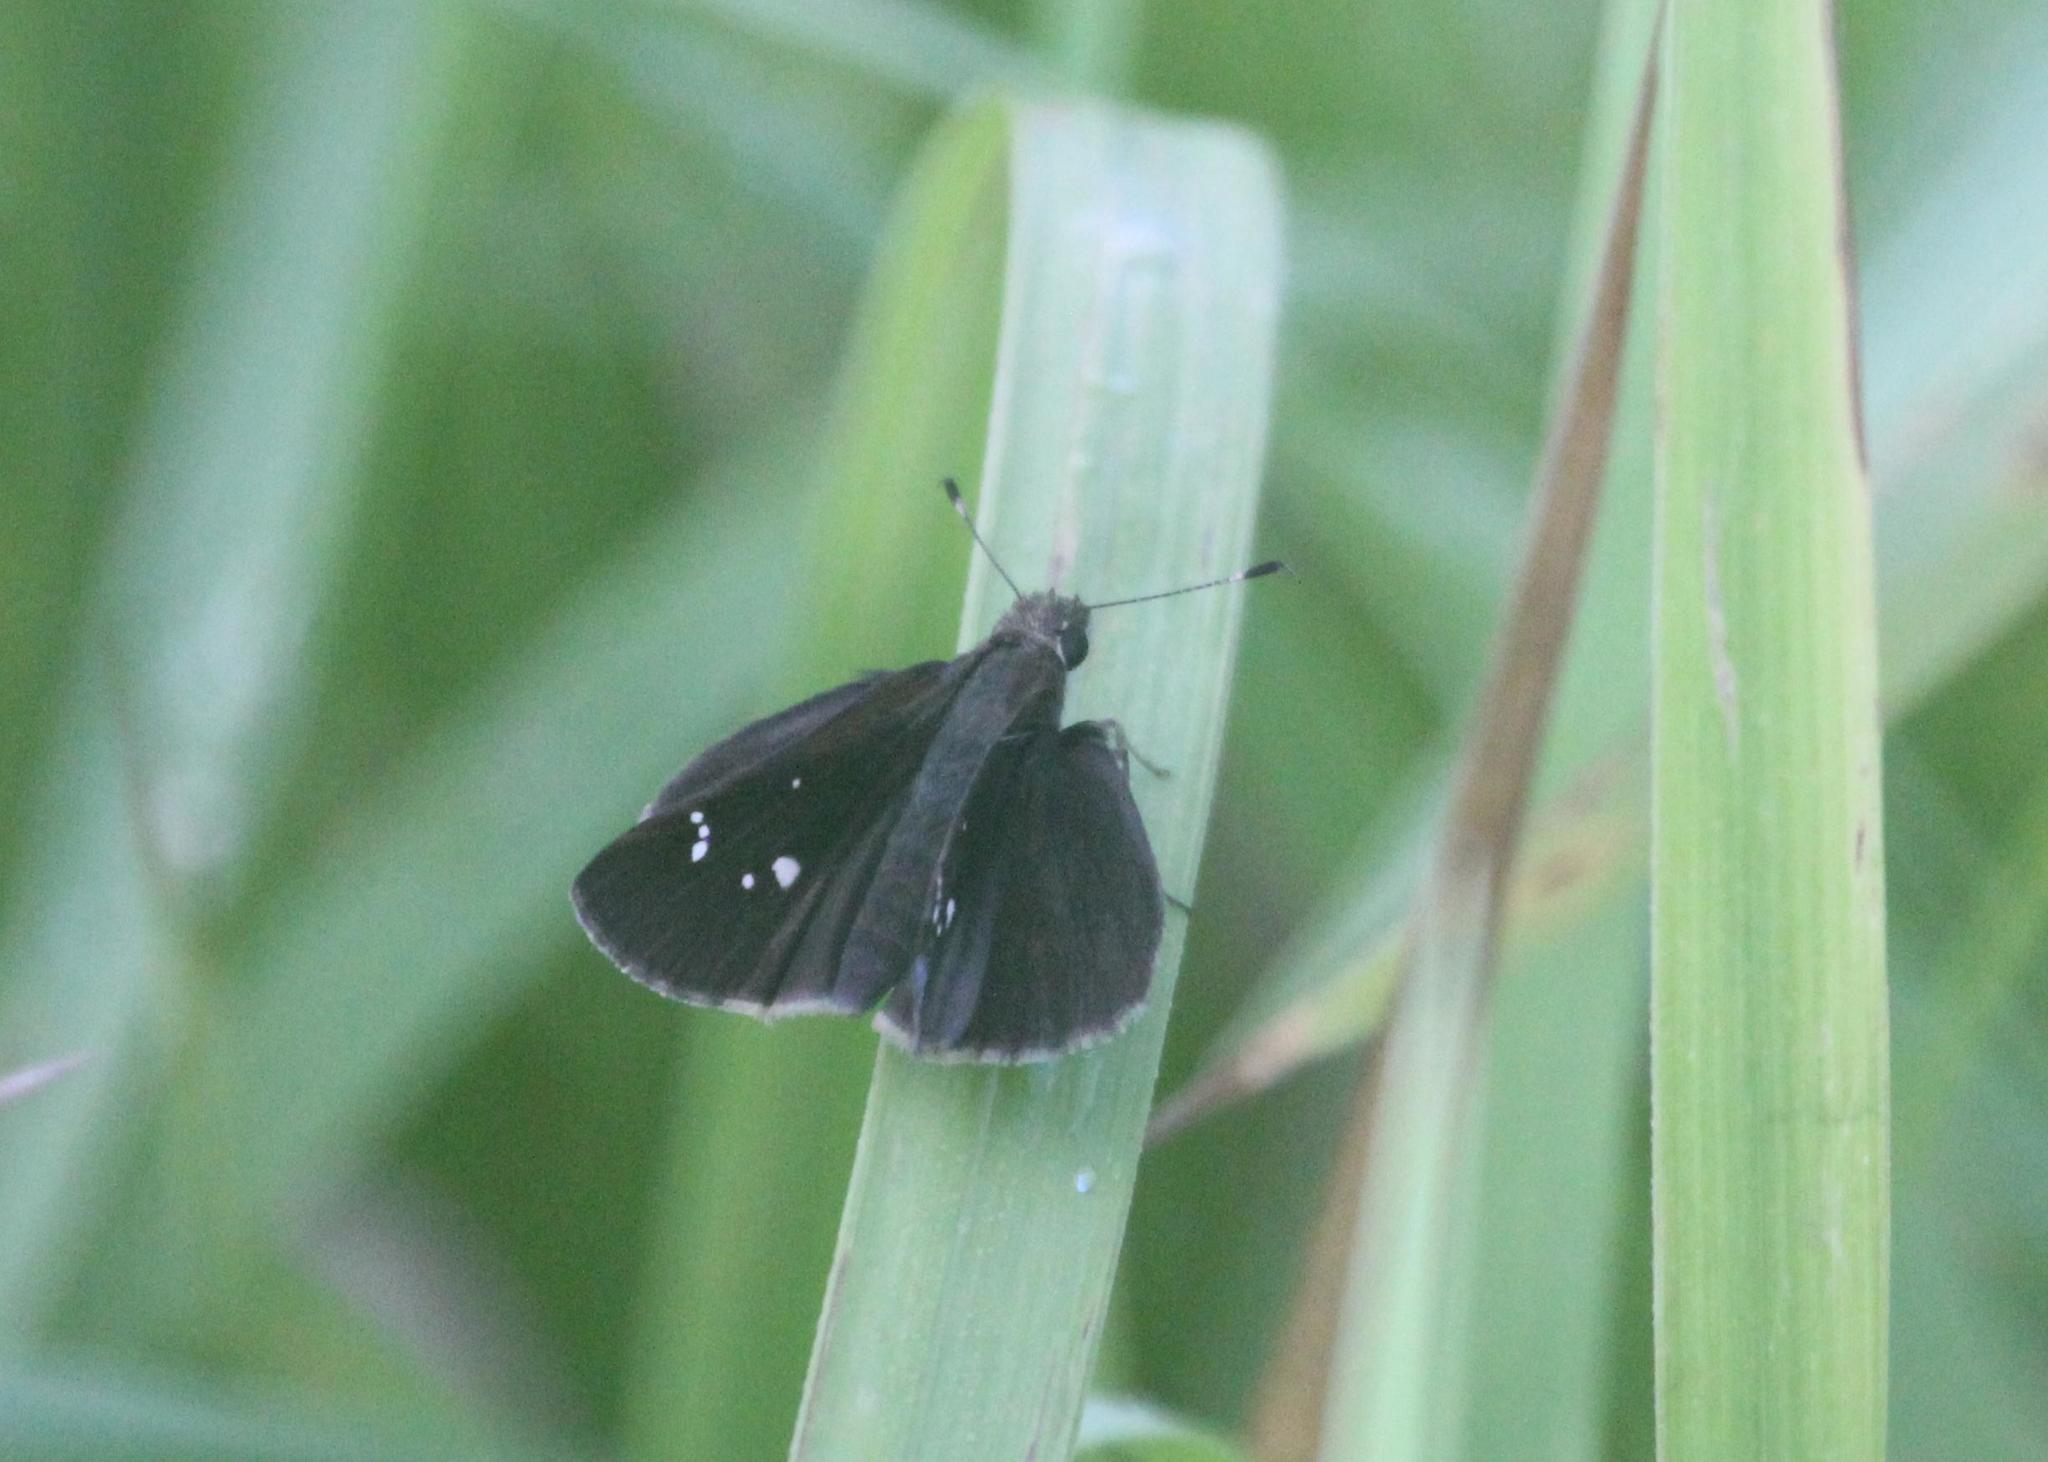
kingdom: Animalia
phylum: Arthropoda
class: Insecta
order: Lepidoptera
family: Hesperiidae
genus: Lerema
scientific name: Lerema accius
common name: Clouded skipper
